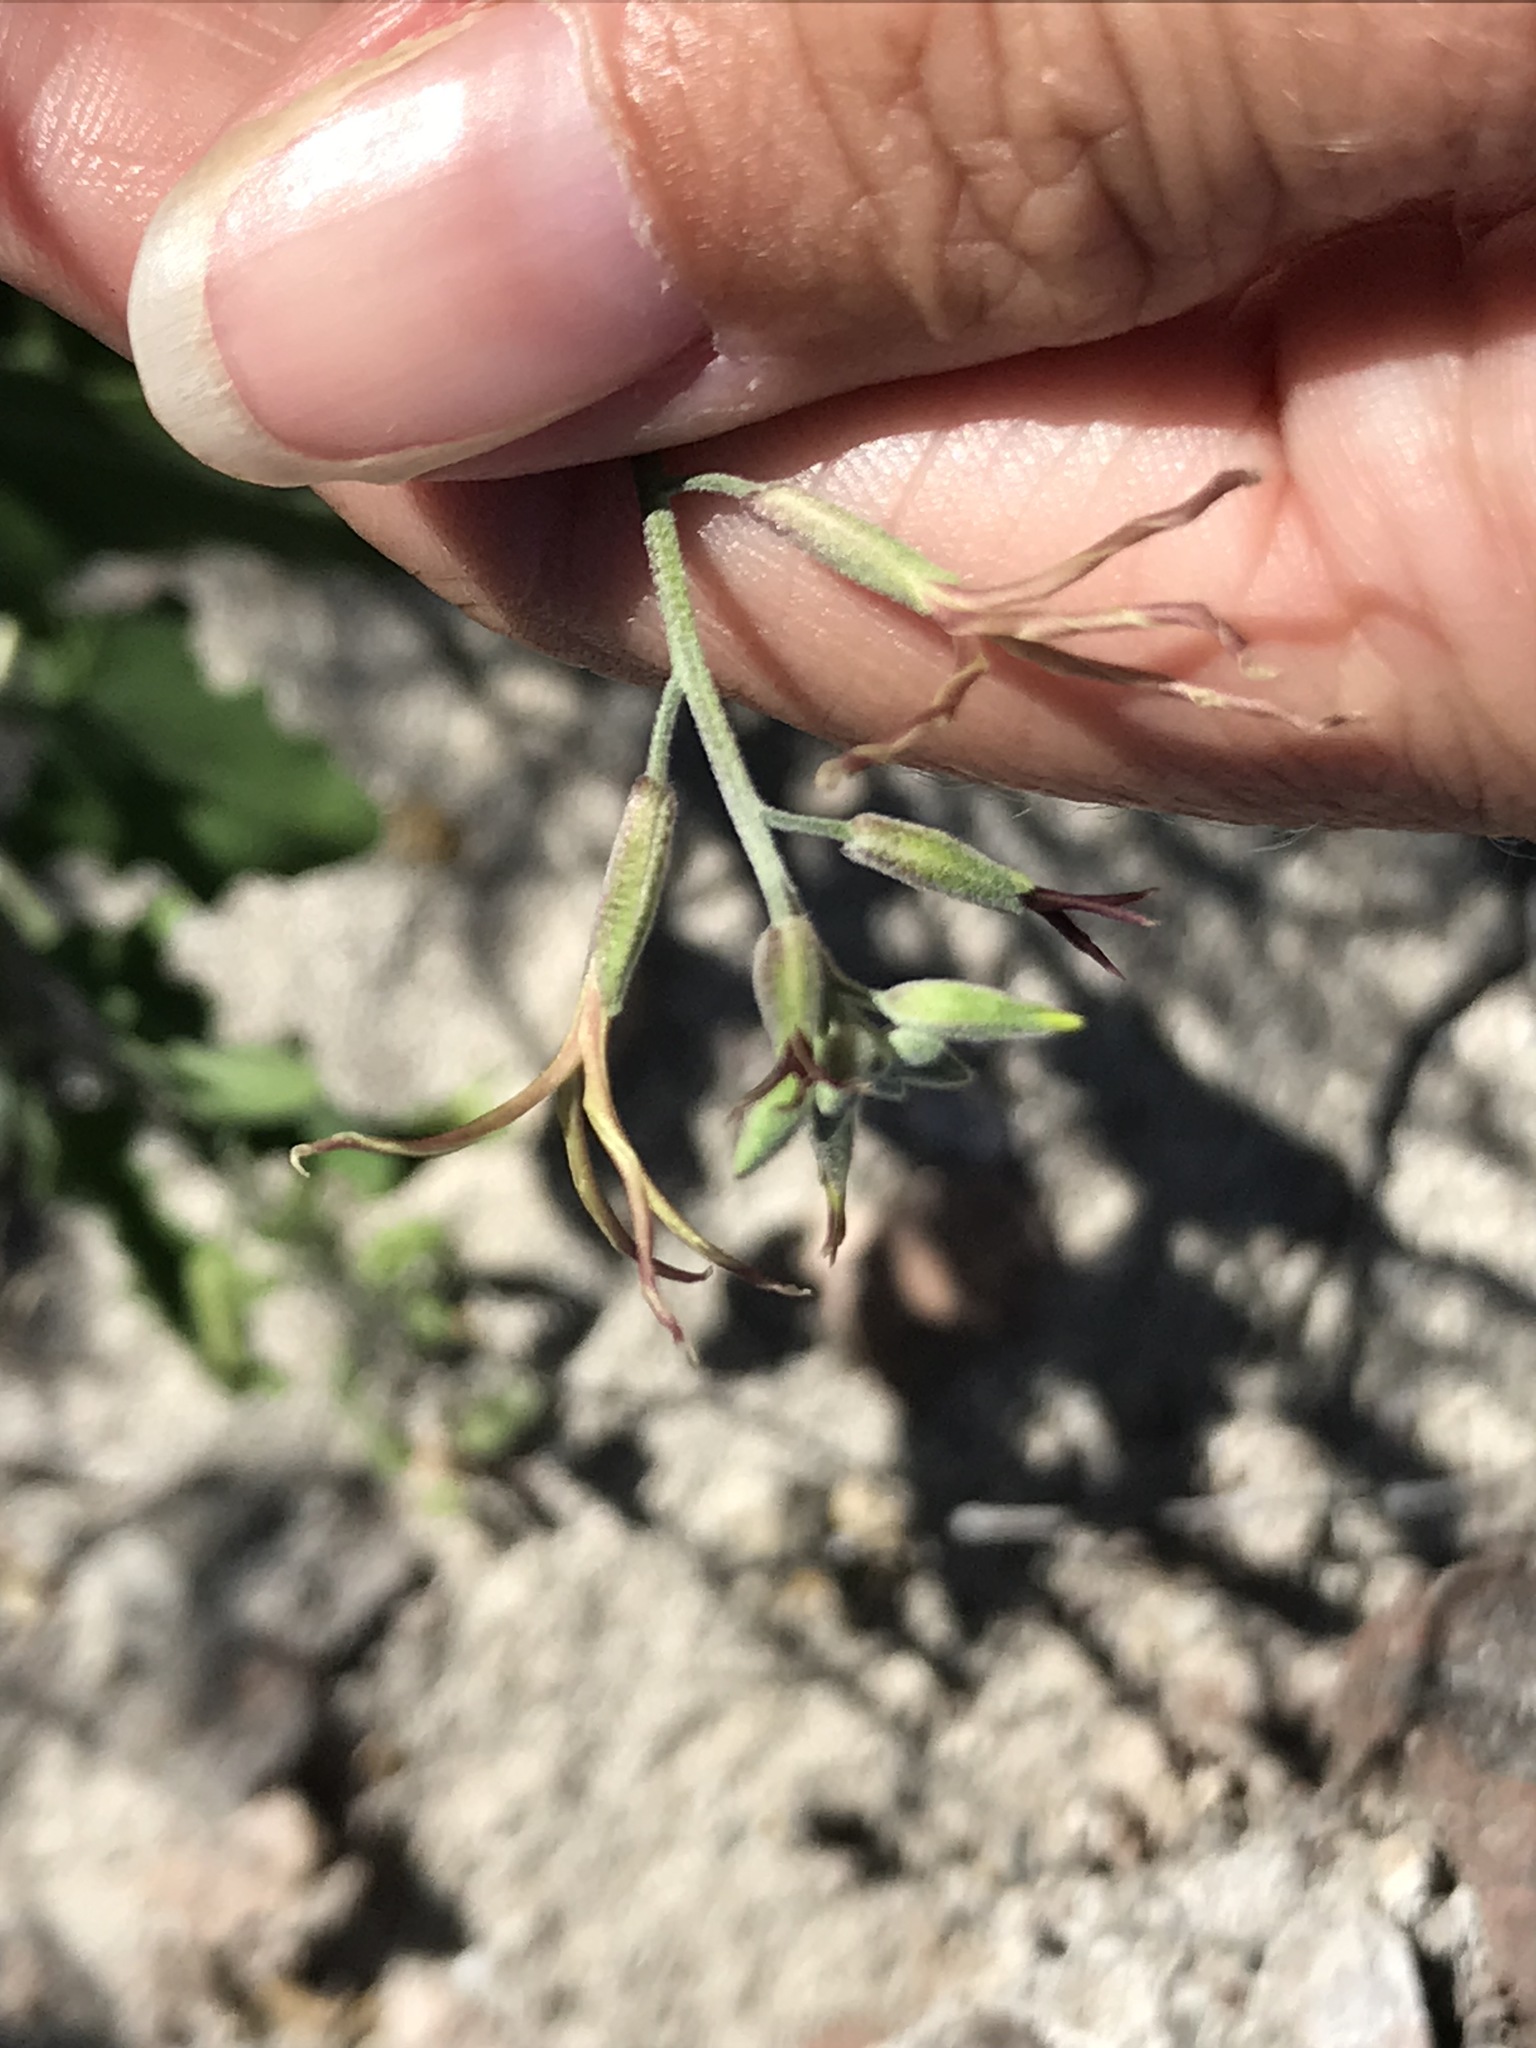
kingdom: Plantae
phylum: Tracheophyta
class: Magnoliopsida
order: Brassicales
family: Brassicaceae
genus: Lyrocarpa
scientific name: Lyrocarpa coulteri
